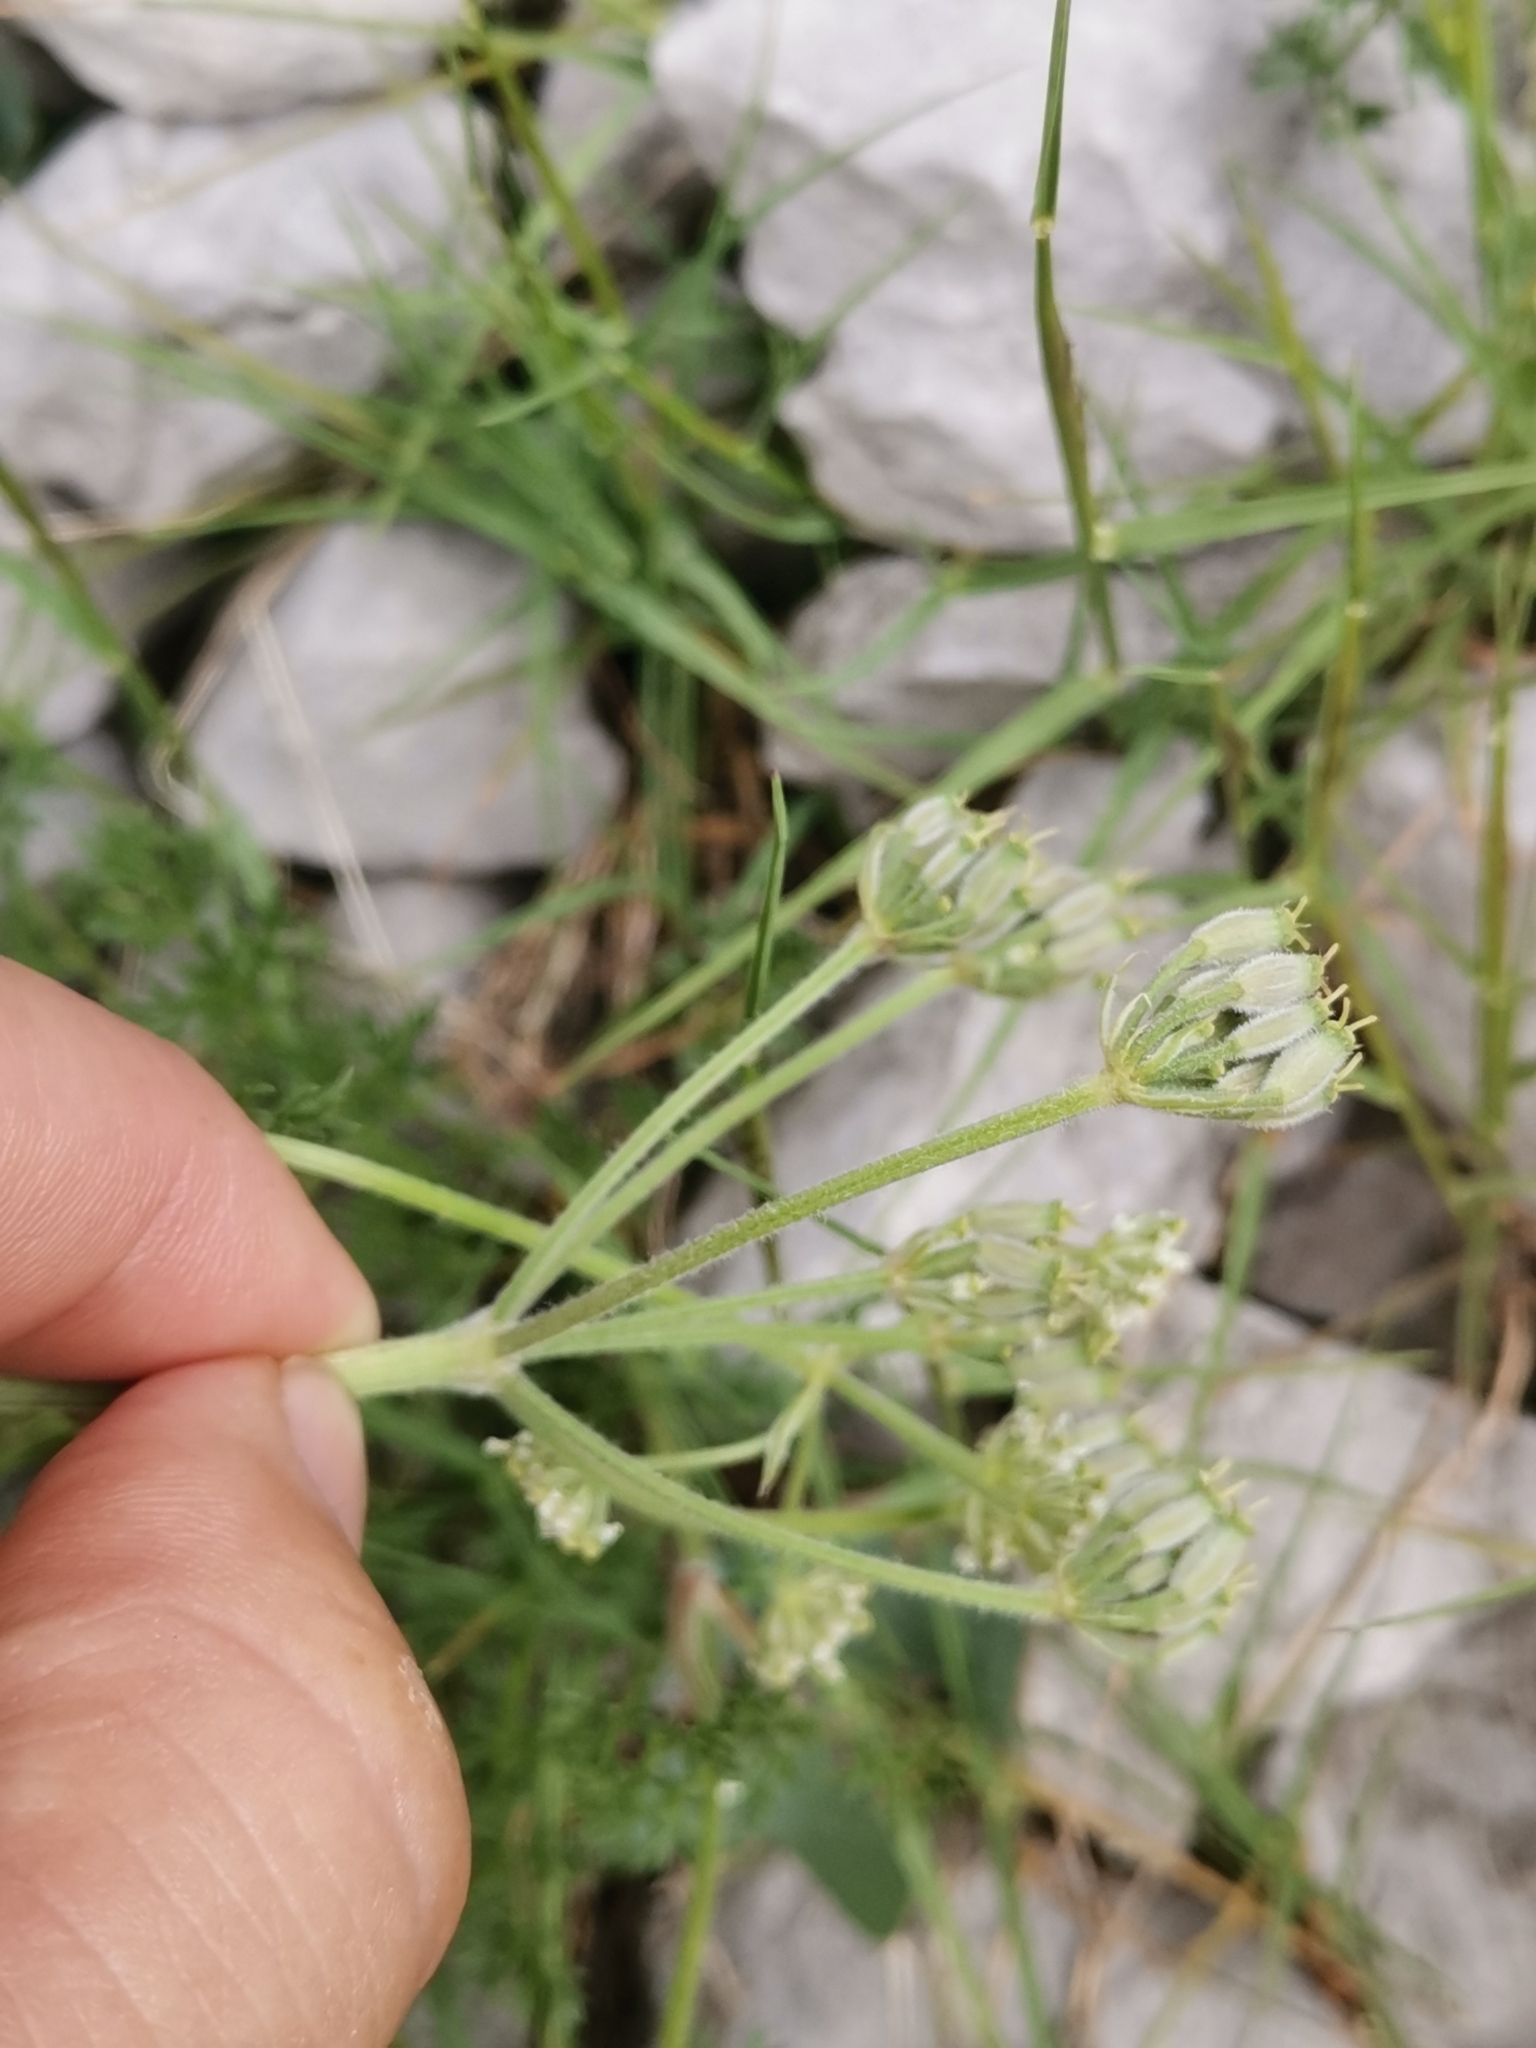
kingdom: Plantae
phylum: Tracheophyta
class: Magnoliopsida
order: Apiales
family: Apiaceae
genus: Athamanta
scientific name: Athamanta cretensis
